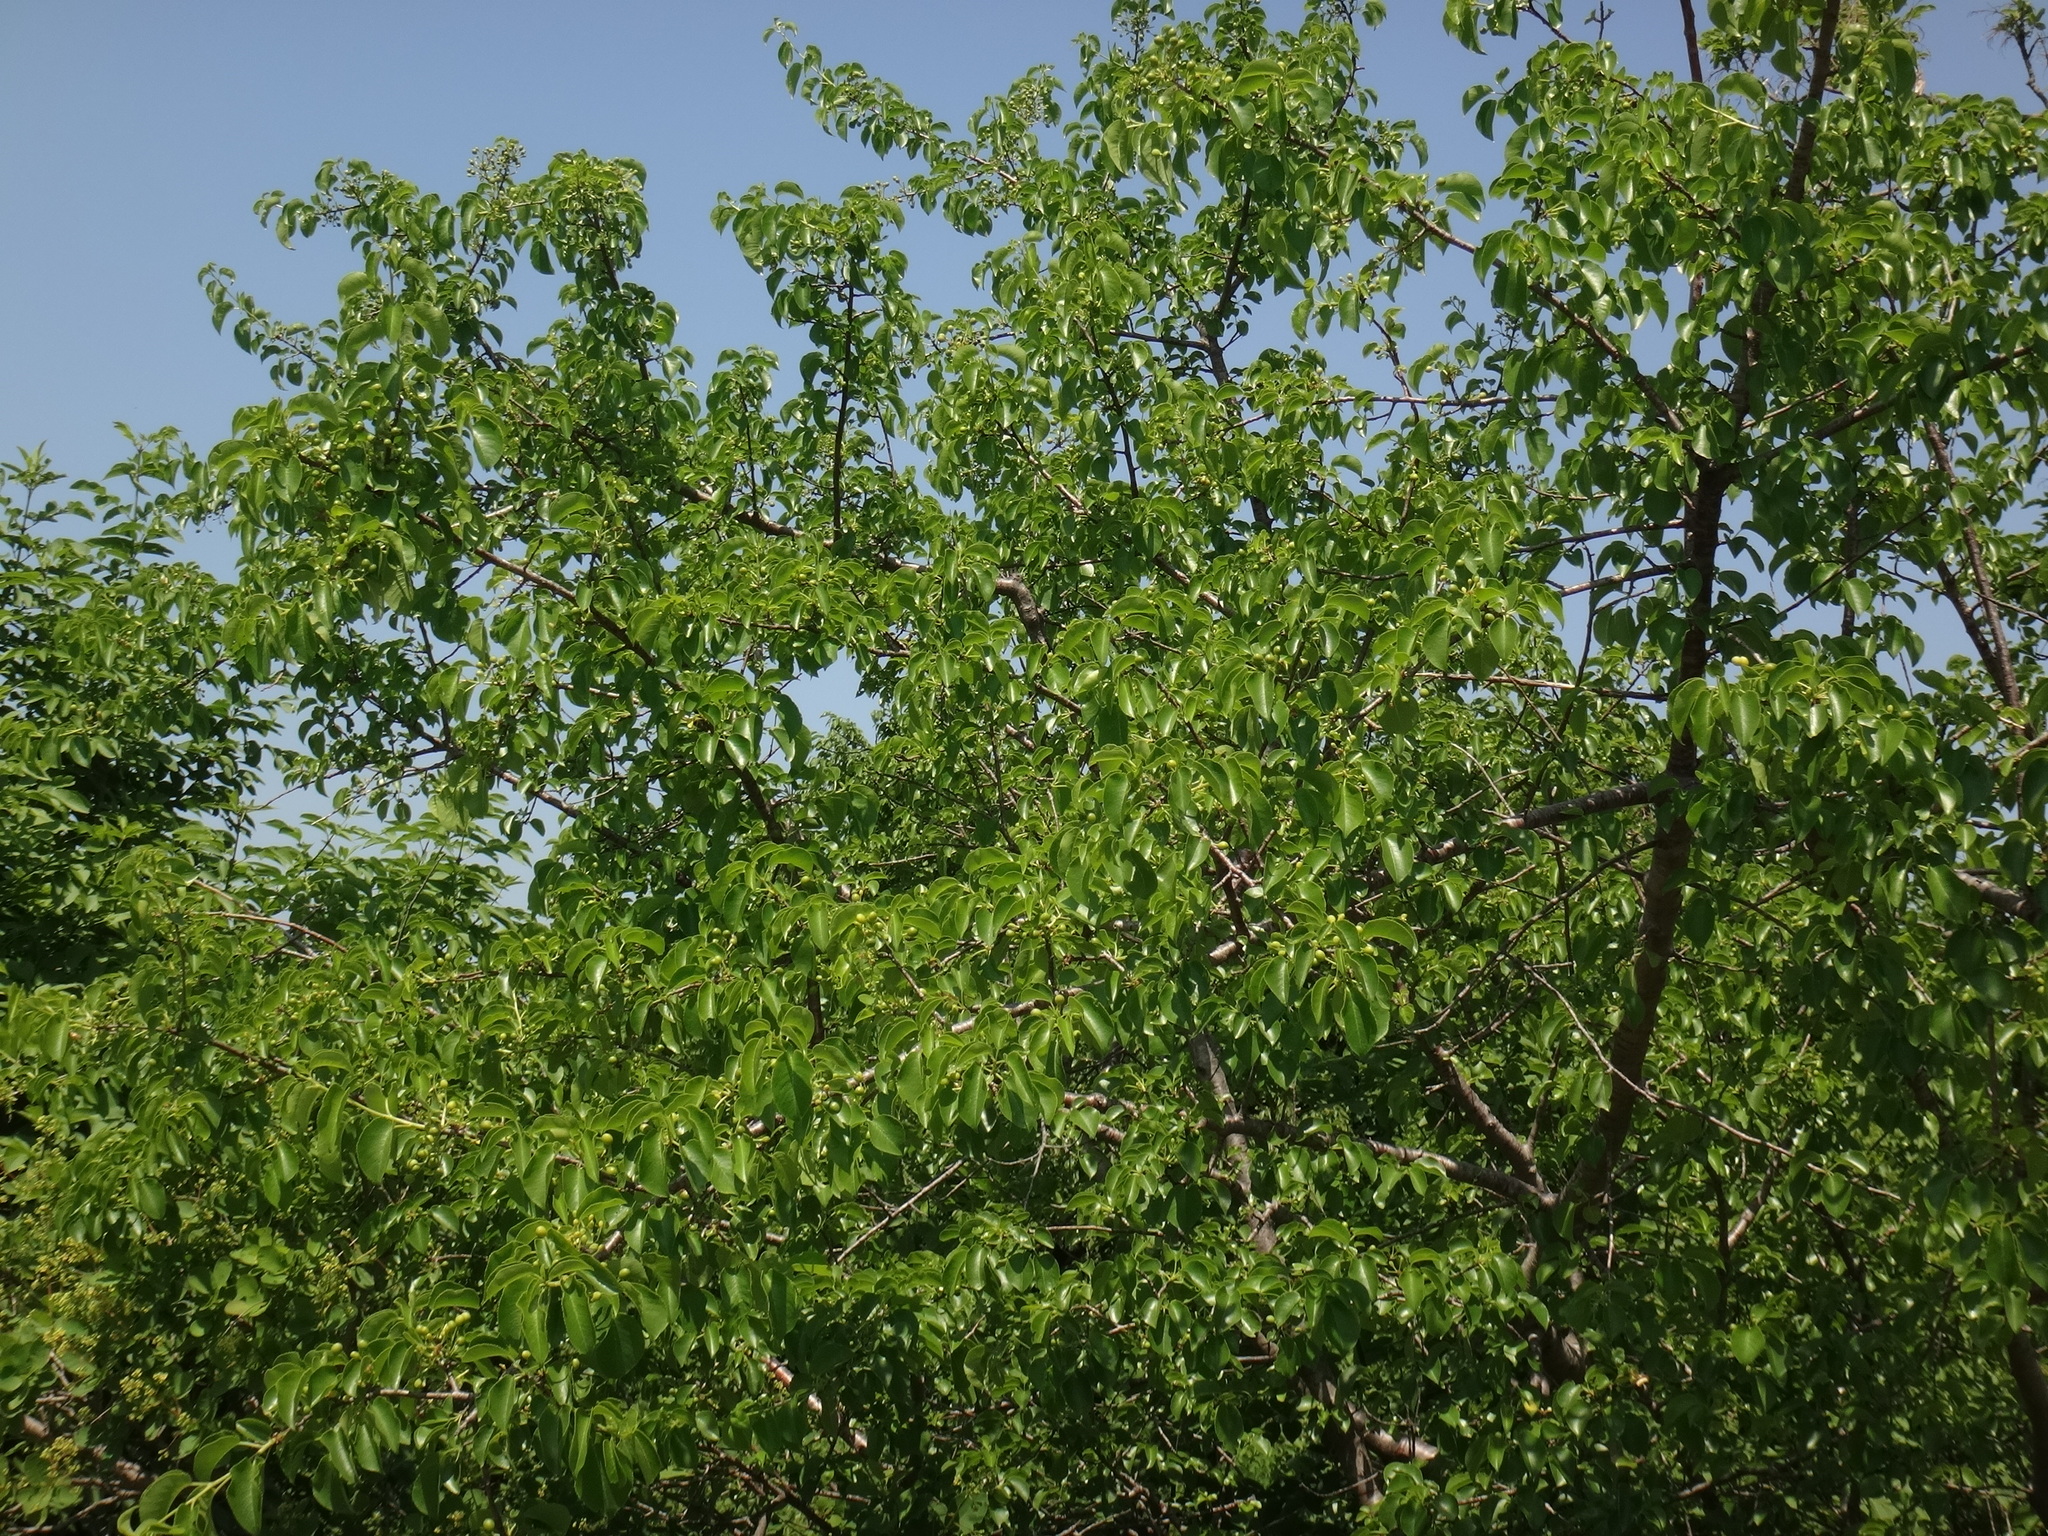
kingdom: Plantae
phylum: Tracheophyta
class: Magnoliopsida
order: Rosales
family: Rosaceae
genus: Prunus
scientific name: Prunus mahaleb
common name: Mahaleb cherry
